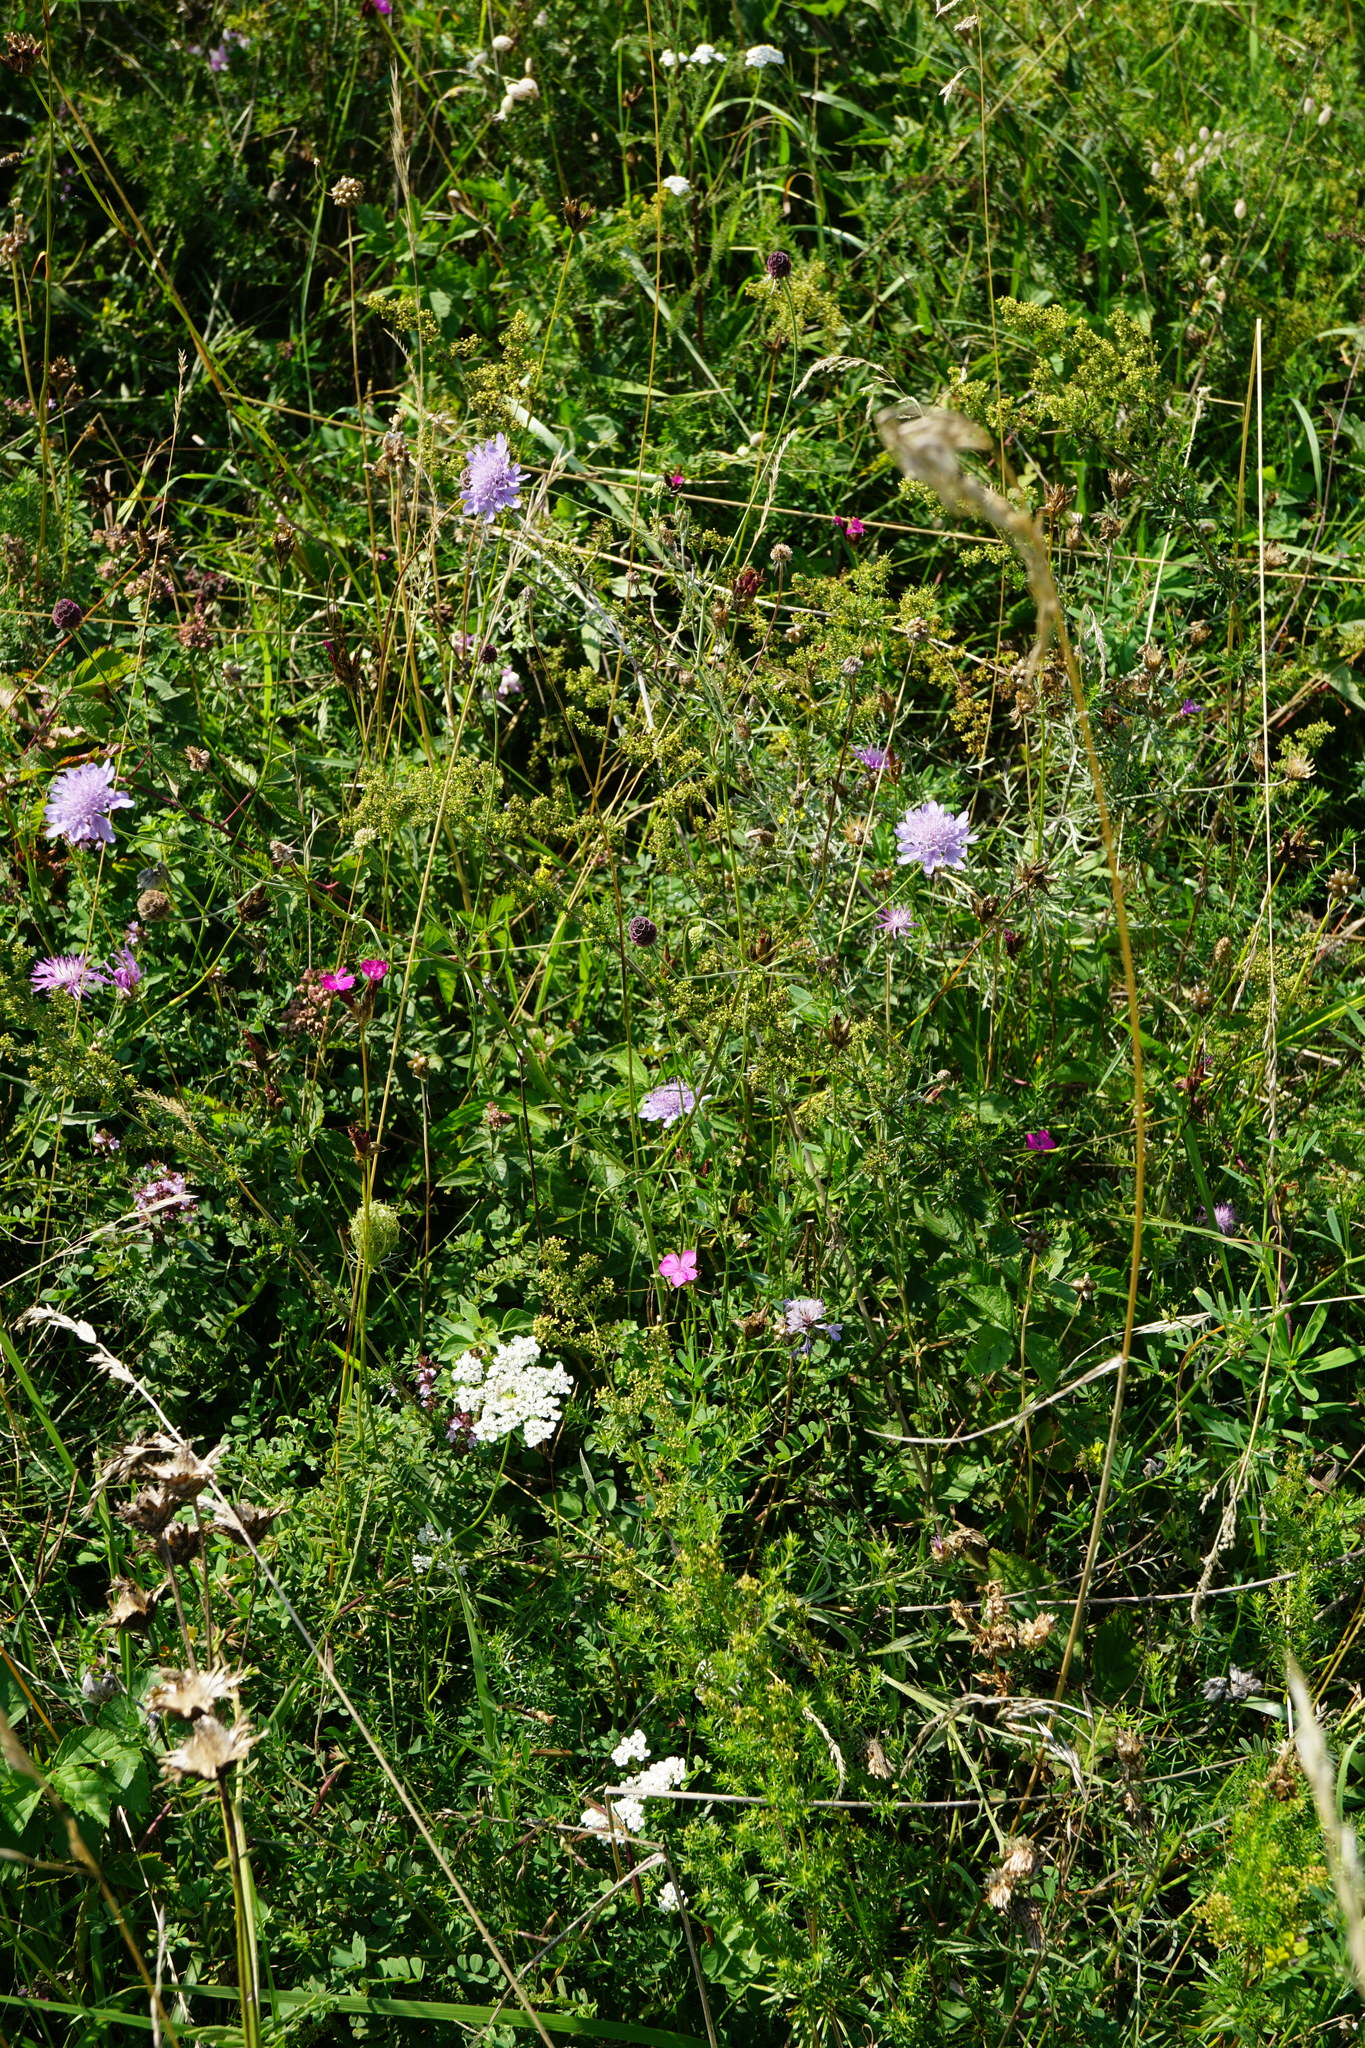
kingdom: Plantae
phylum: Tracheophyta
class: Magnoliopsida
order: Dipsacales
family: Caprifoliaceae
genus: Scabiosa
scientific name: Scabiosa triandra
